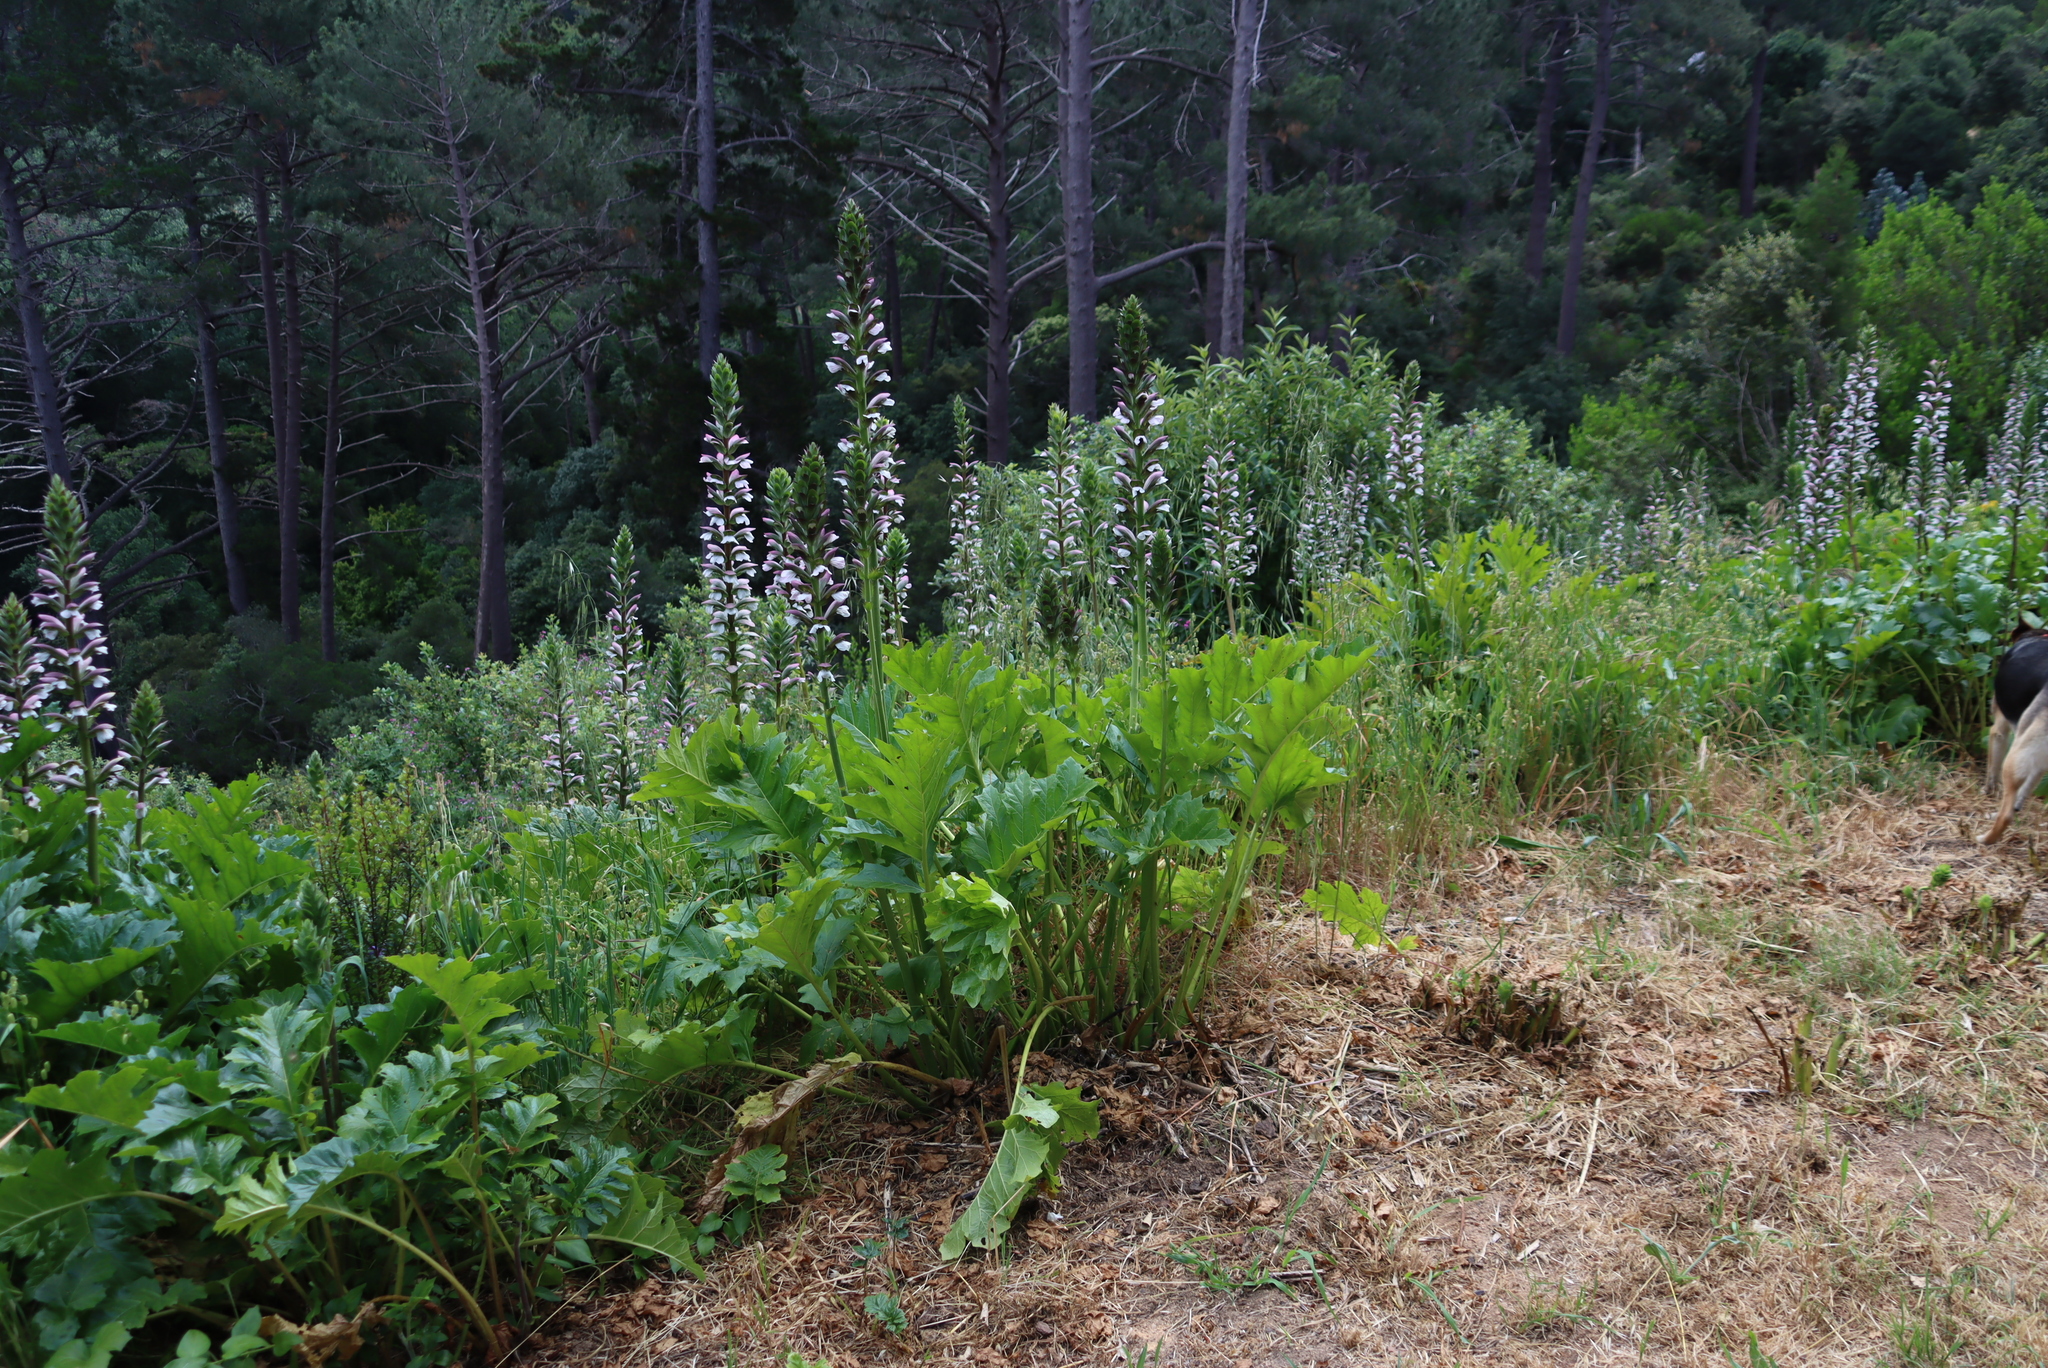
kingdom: Plantae
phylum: Tracheophyta
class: Magnoliopsida
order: Lamiales
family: Acanthaceae
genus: Acanthus
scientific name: Acanthus mollis
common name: Bear's-breech
